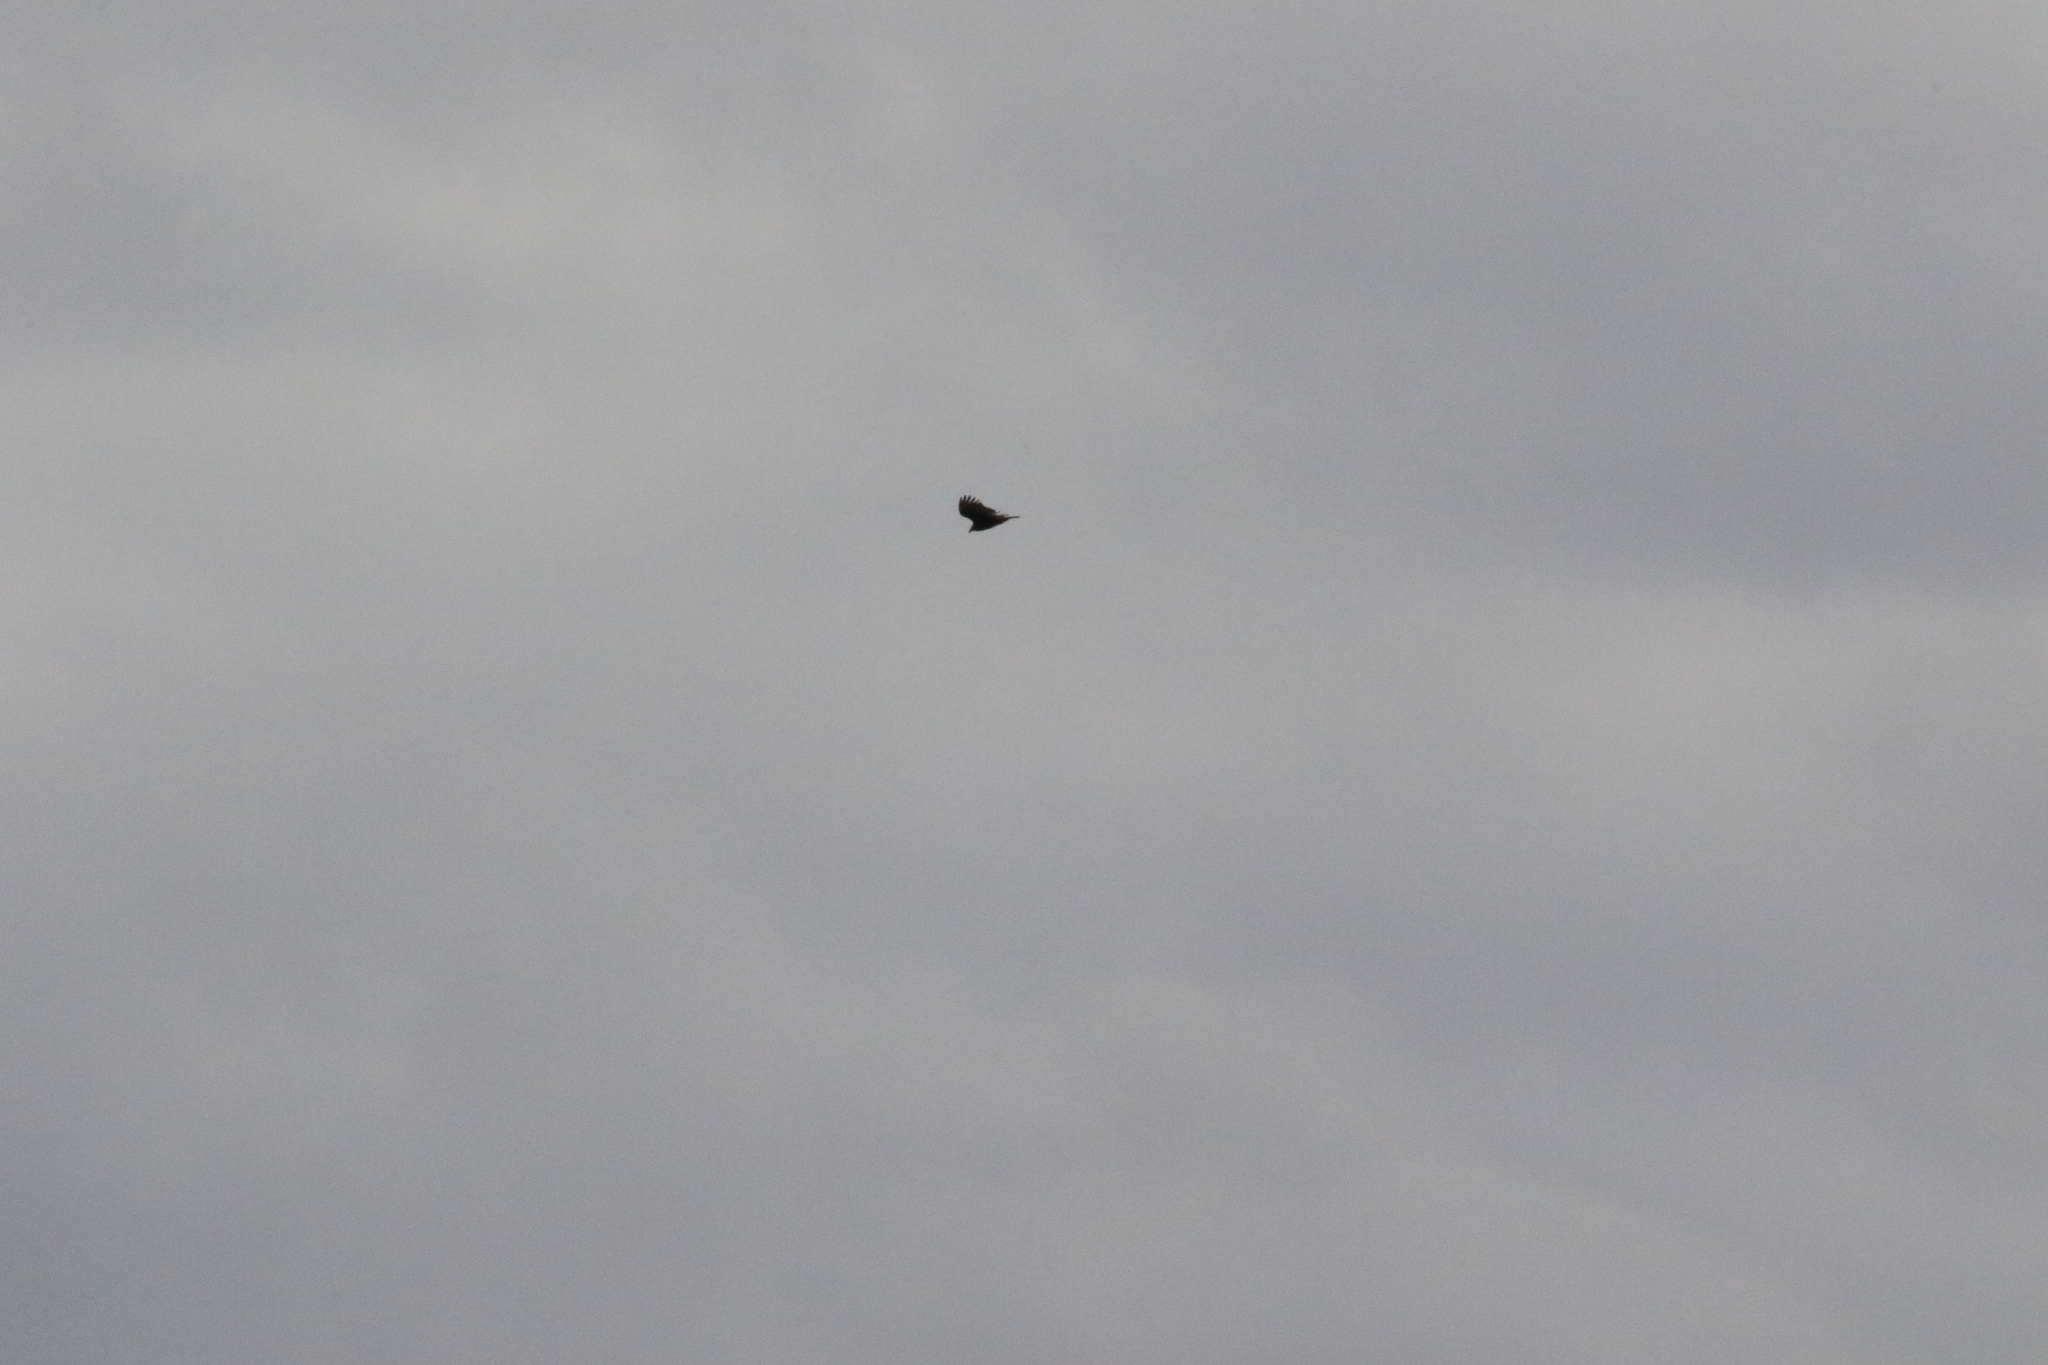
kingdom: Animalia
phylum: Chordata
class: Aves
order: Accipitriformes
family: Cathartidae
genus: Cathartes
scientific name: Cathartes aura
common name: Turkey vulture
